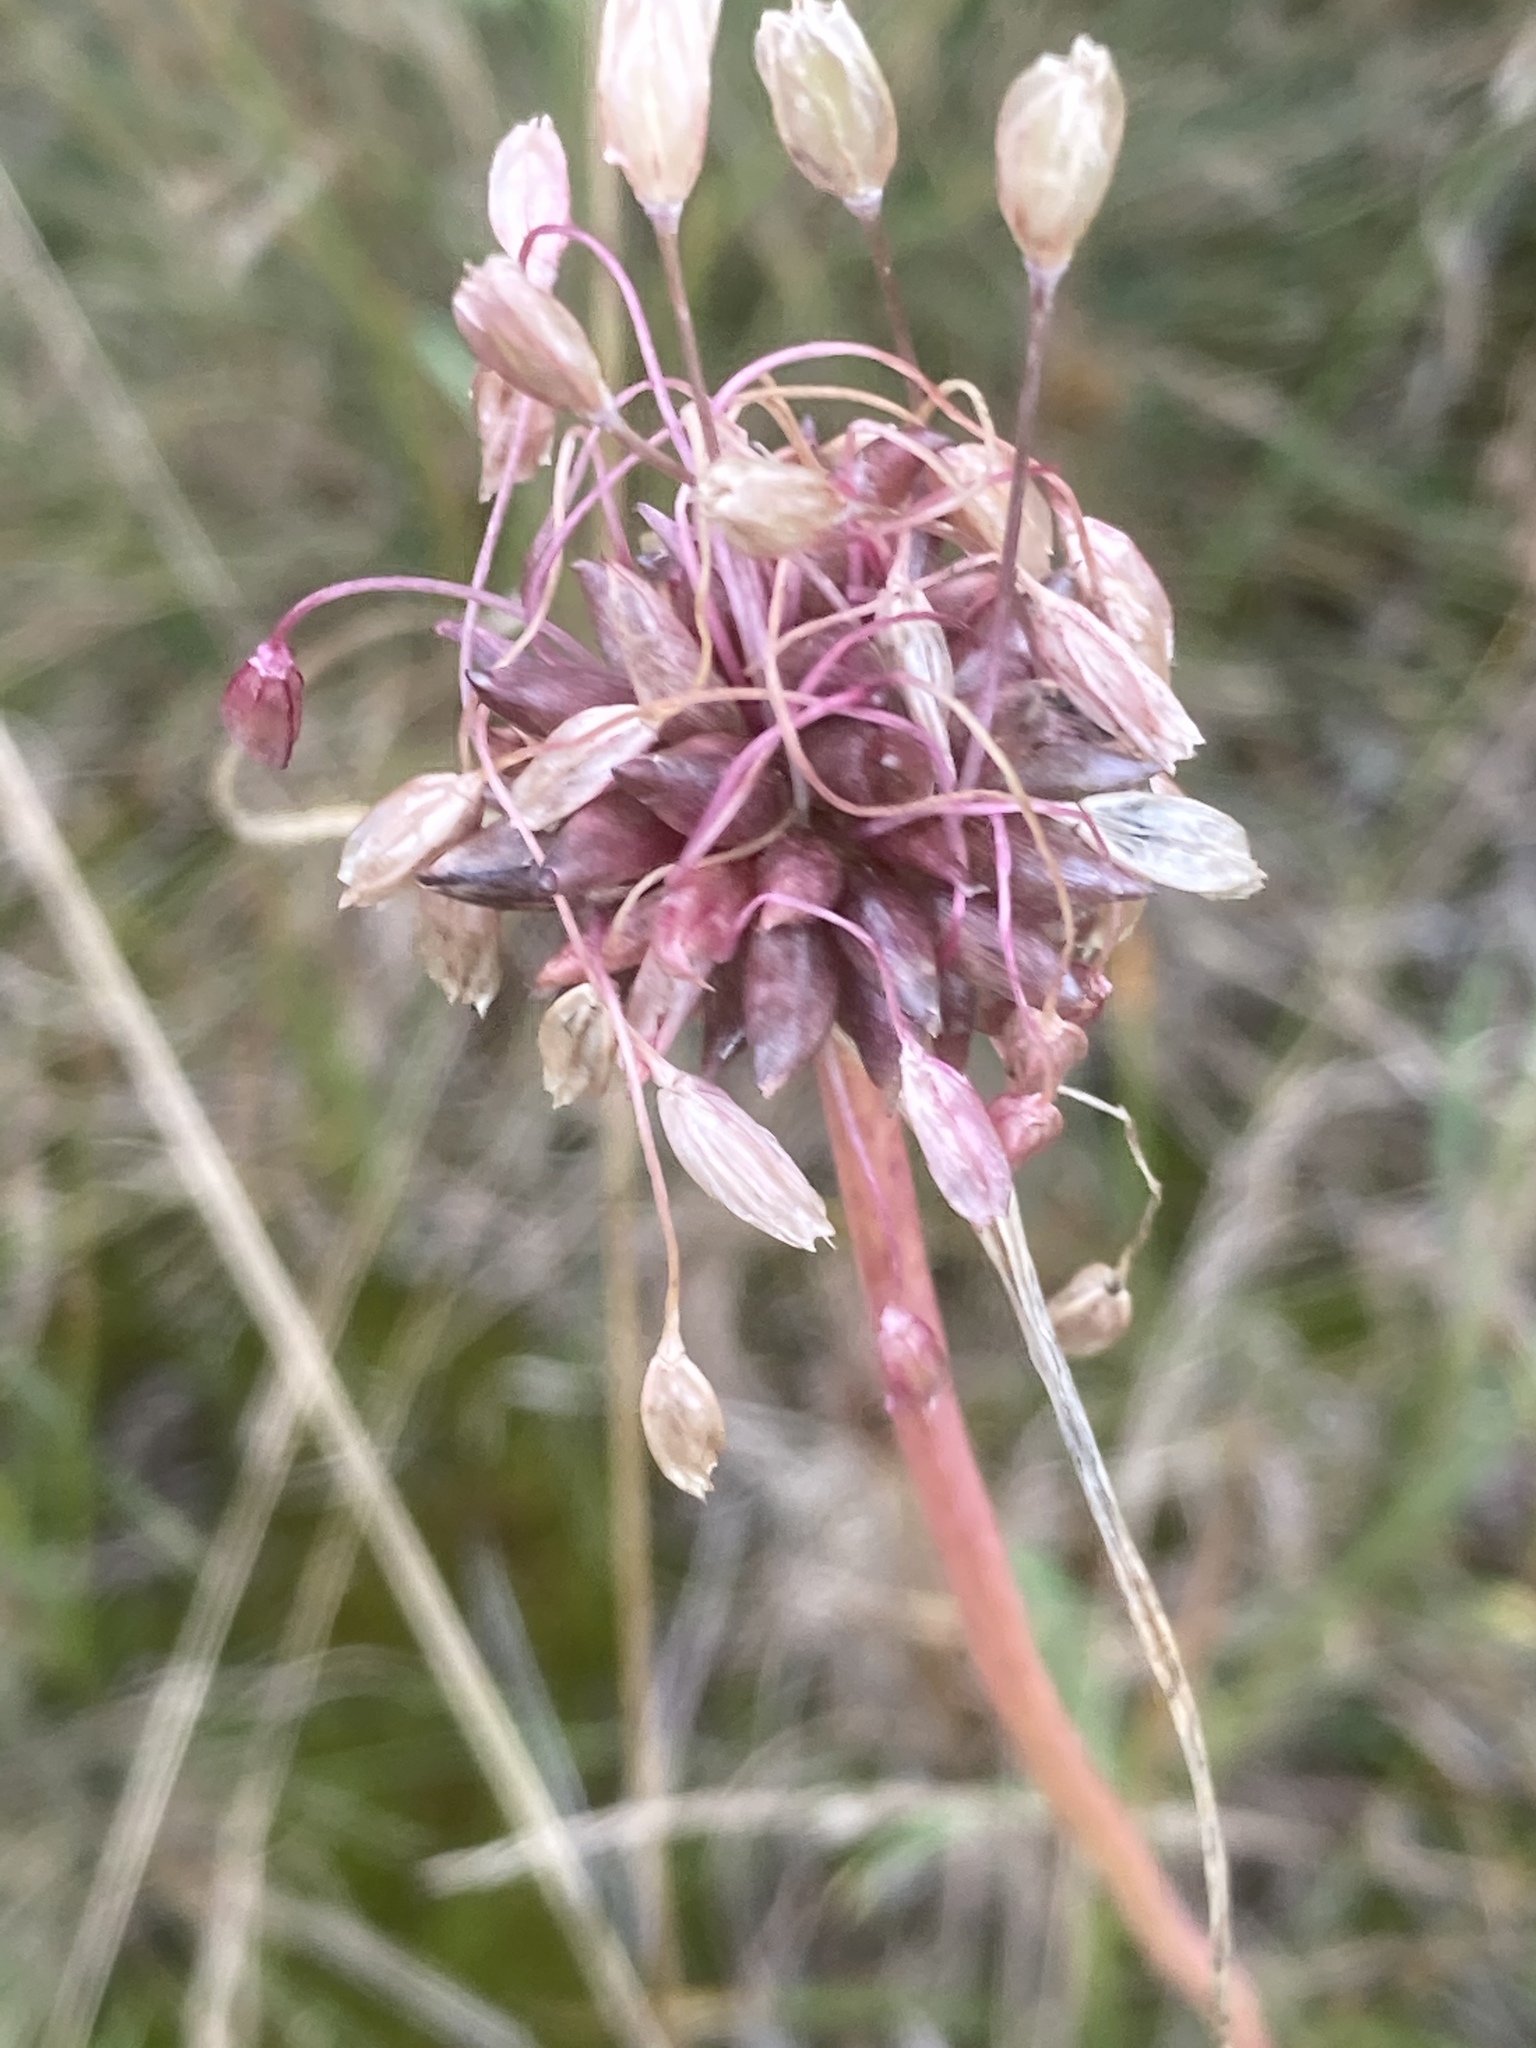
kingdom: Plantae
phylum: Tracheophyta
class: Liliopsida
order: Asparagales
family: Amaryllidaceae
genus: Allium
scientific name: Allium oleraceum
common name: Field garlic
